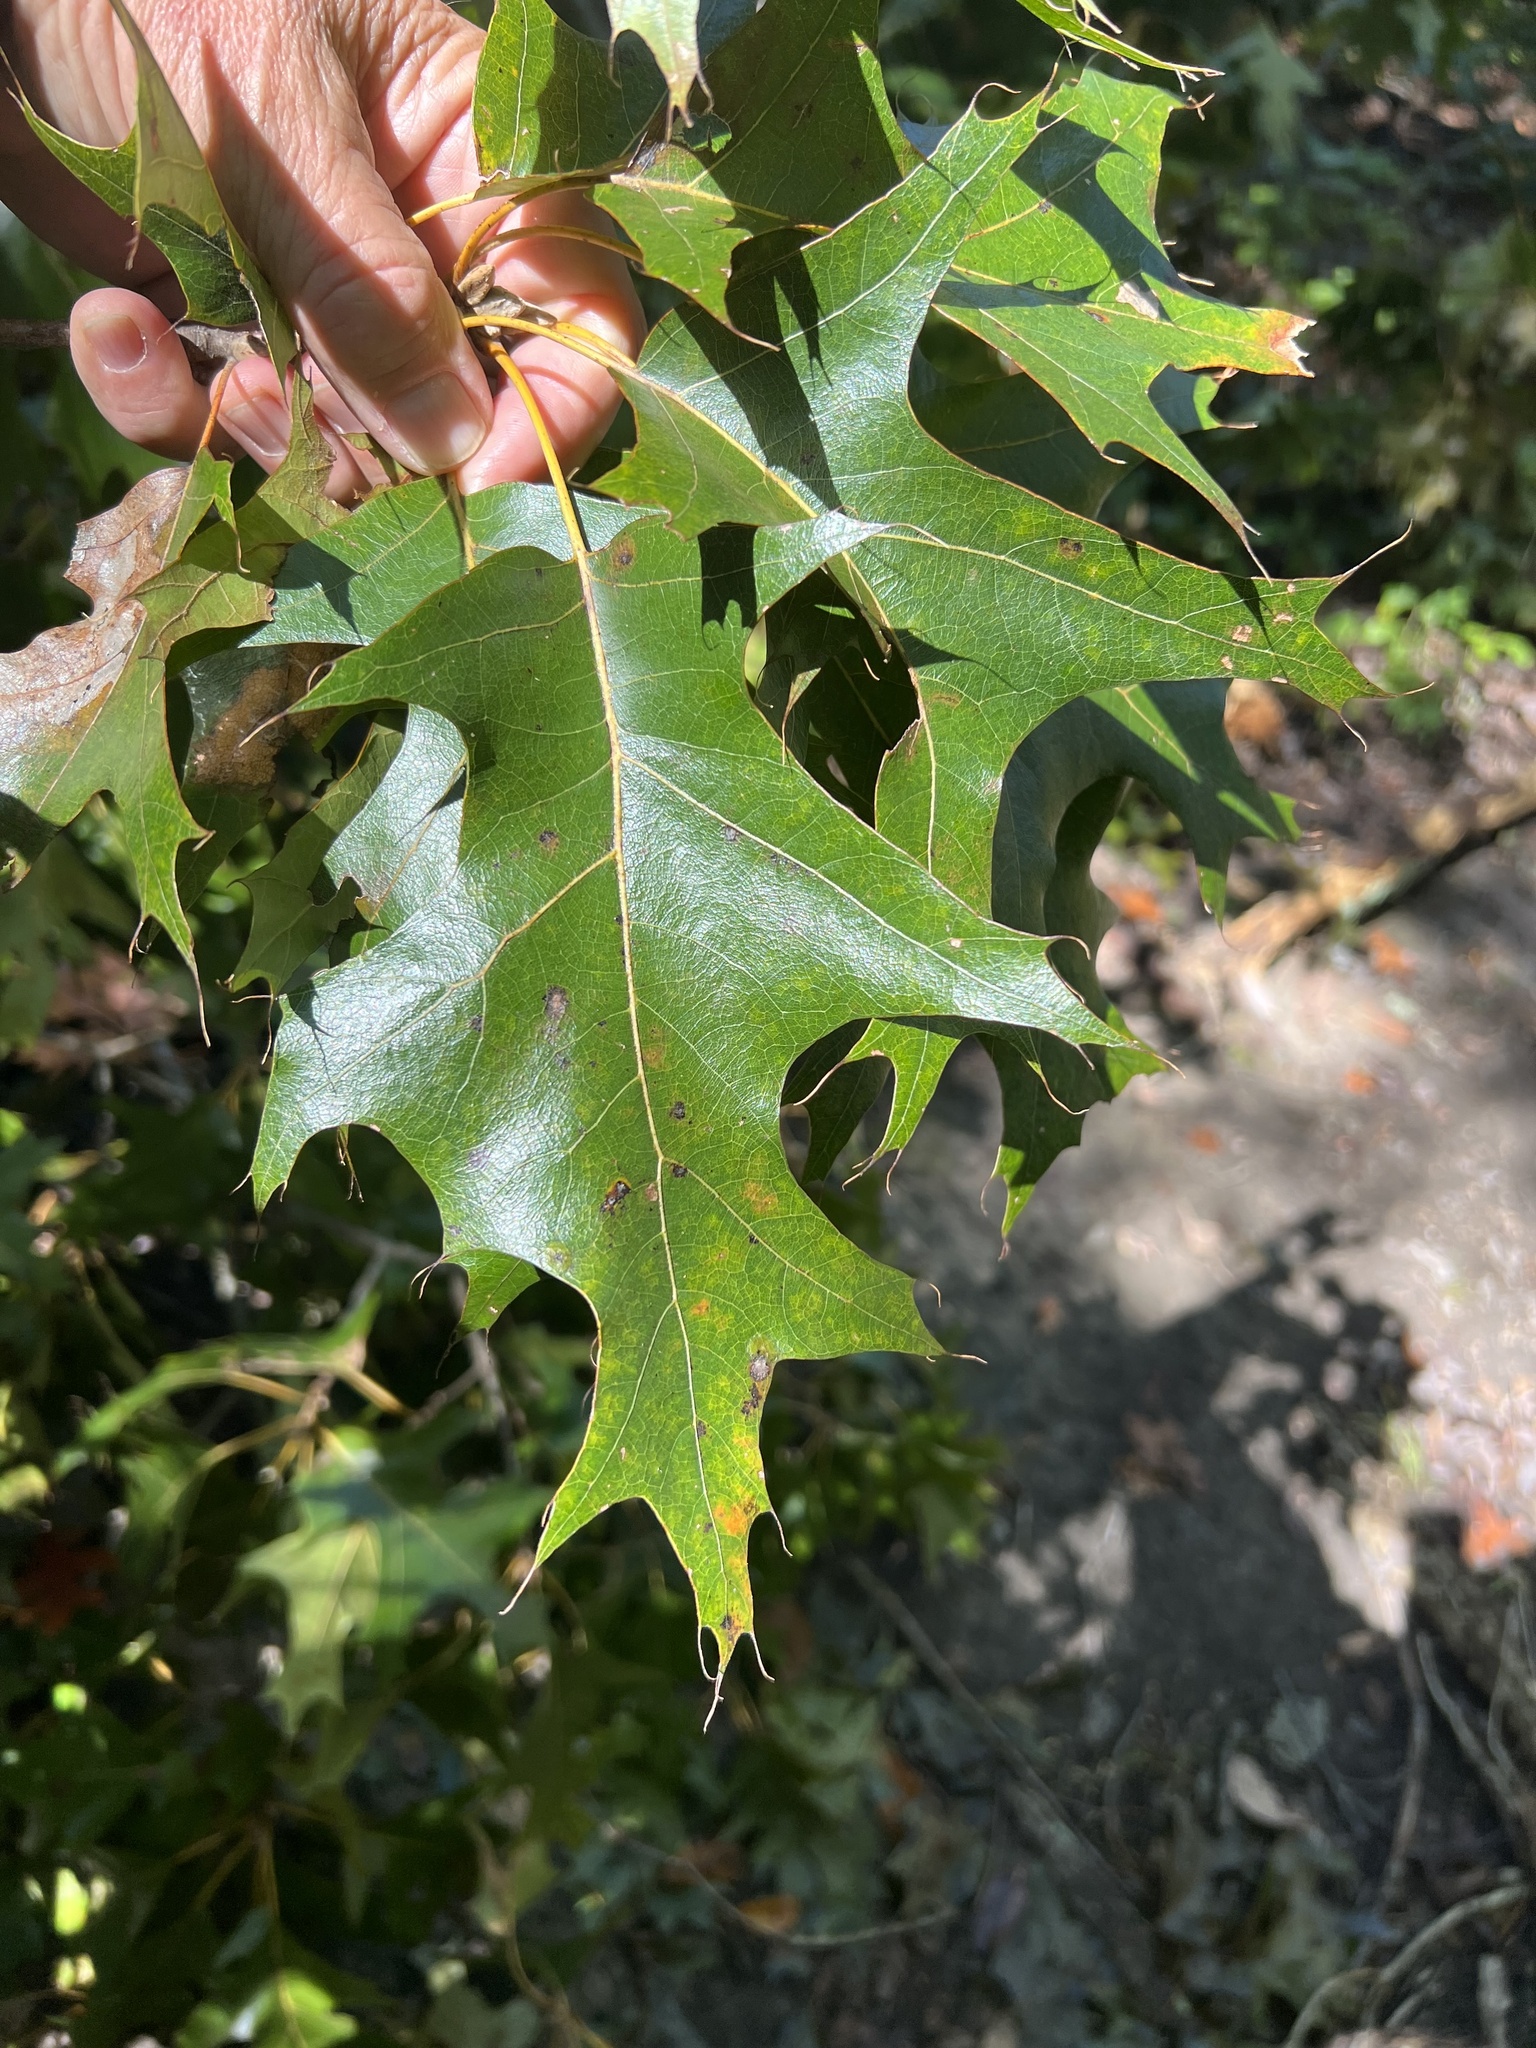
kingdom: Plantae
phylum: Tracheophyta
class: Magnoliopsida
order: Fagales
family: Fagaceae
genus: Quercus
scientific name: Quercus rubra
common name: Red oak
